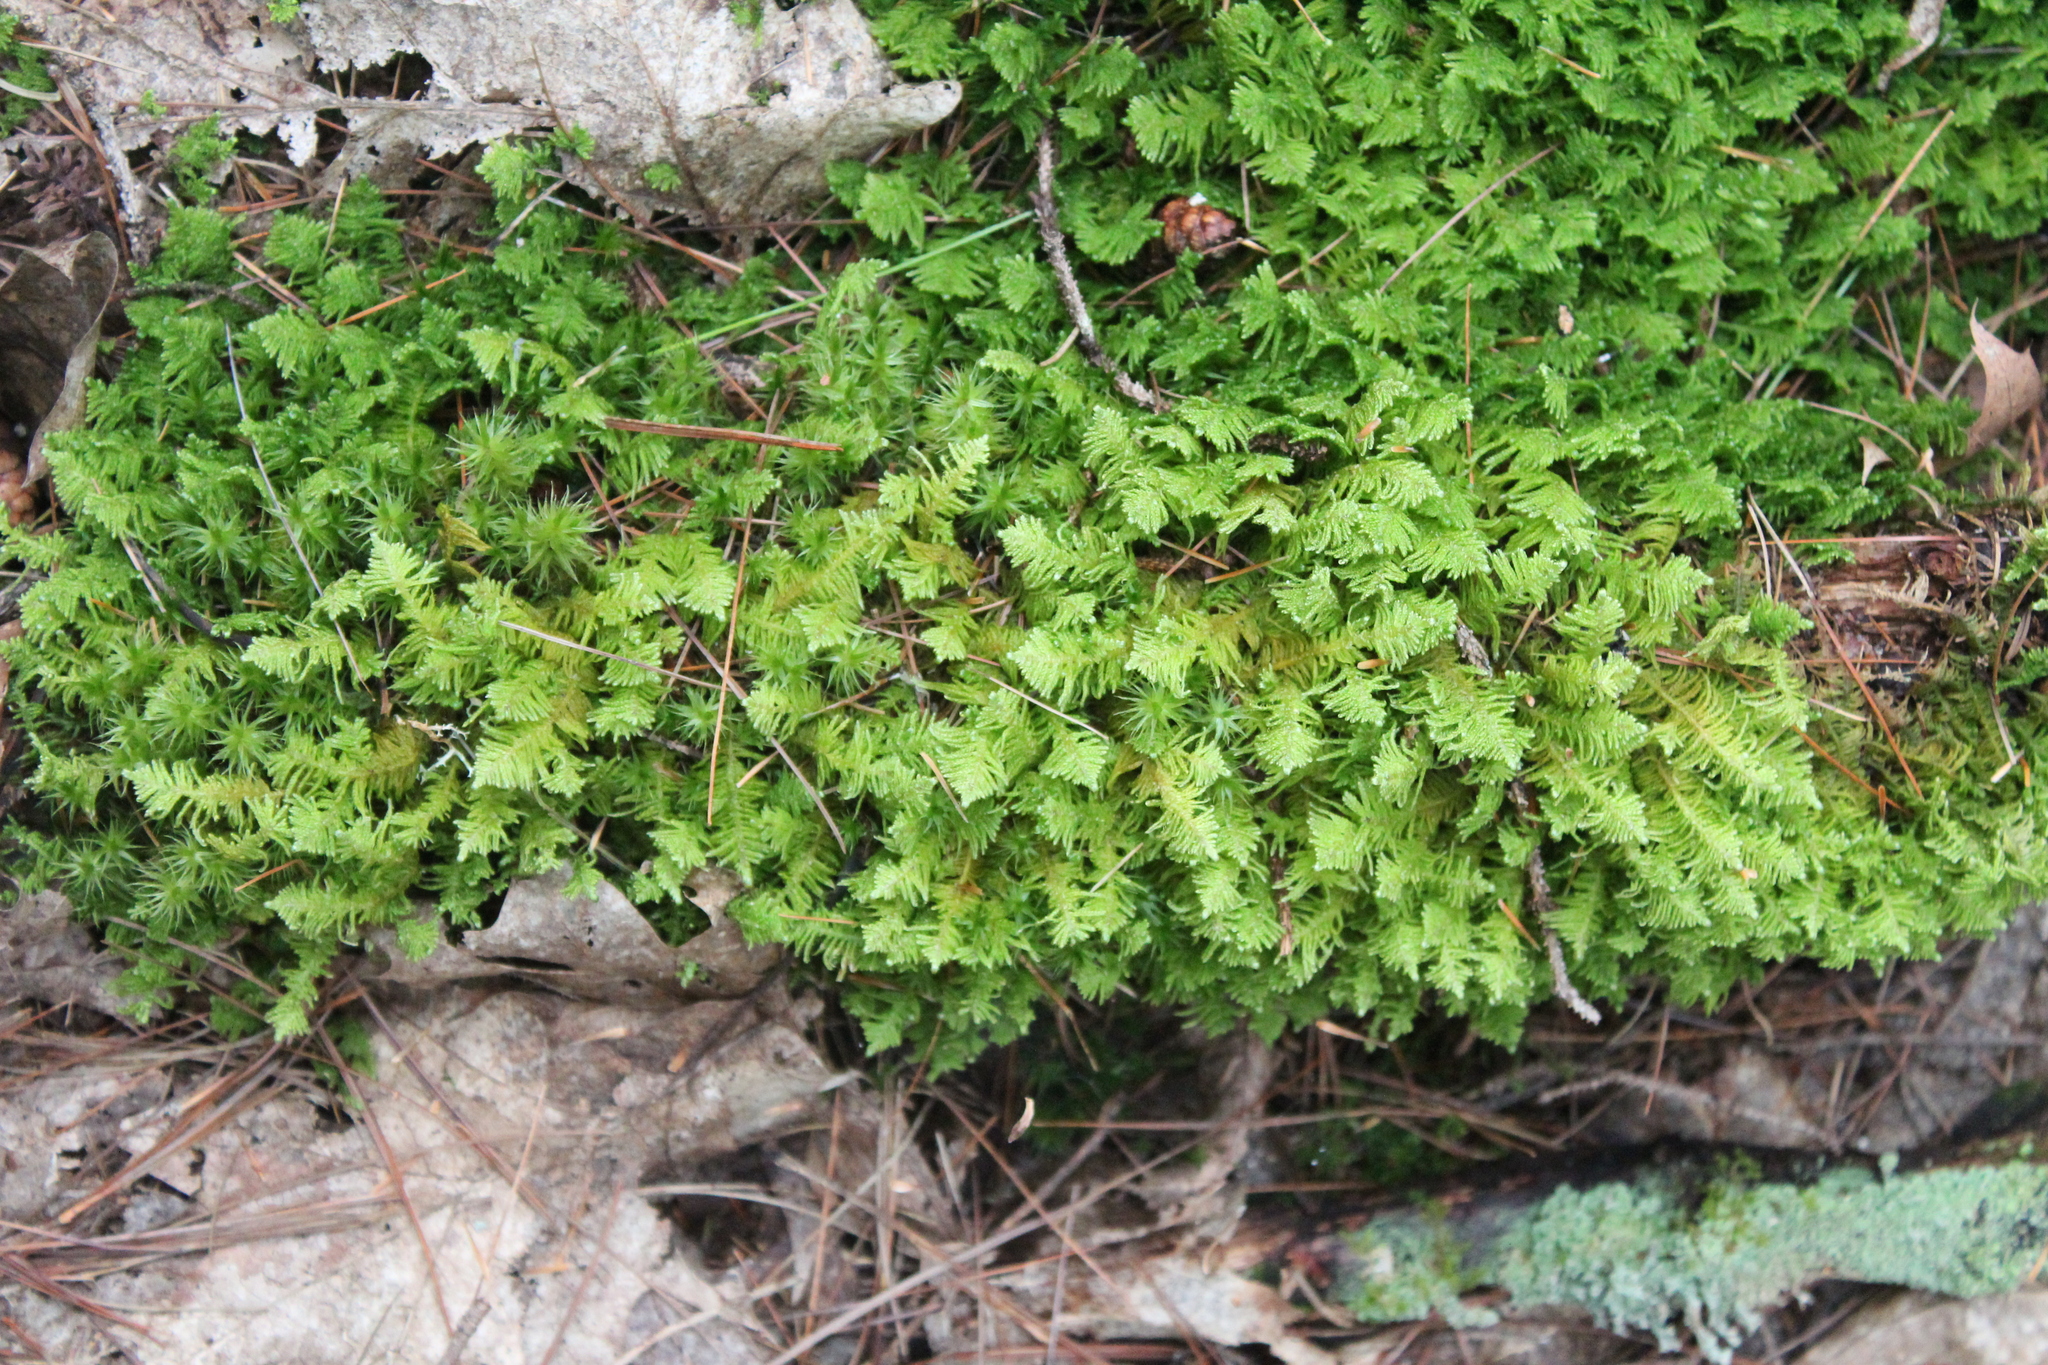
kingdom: Plantae
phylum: Bryophyta
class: Bryopsida
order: Hypnales
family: Pylaisiaceae
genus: Ptilium
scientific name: Ptilium crista-castrensis
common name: Knight's plume moss
